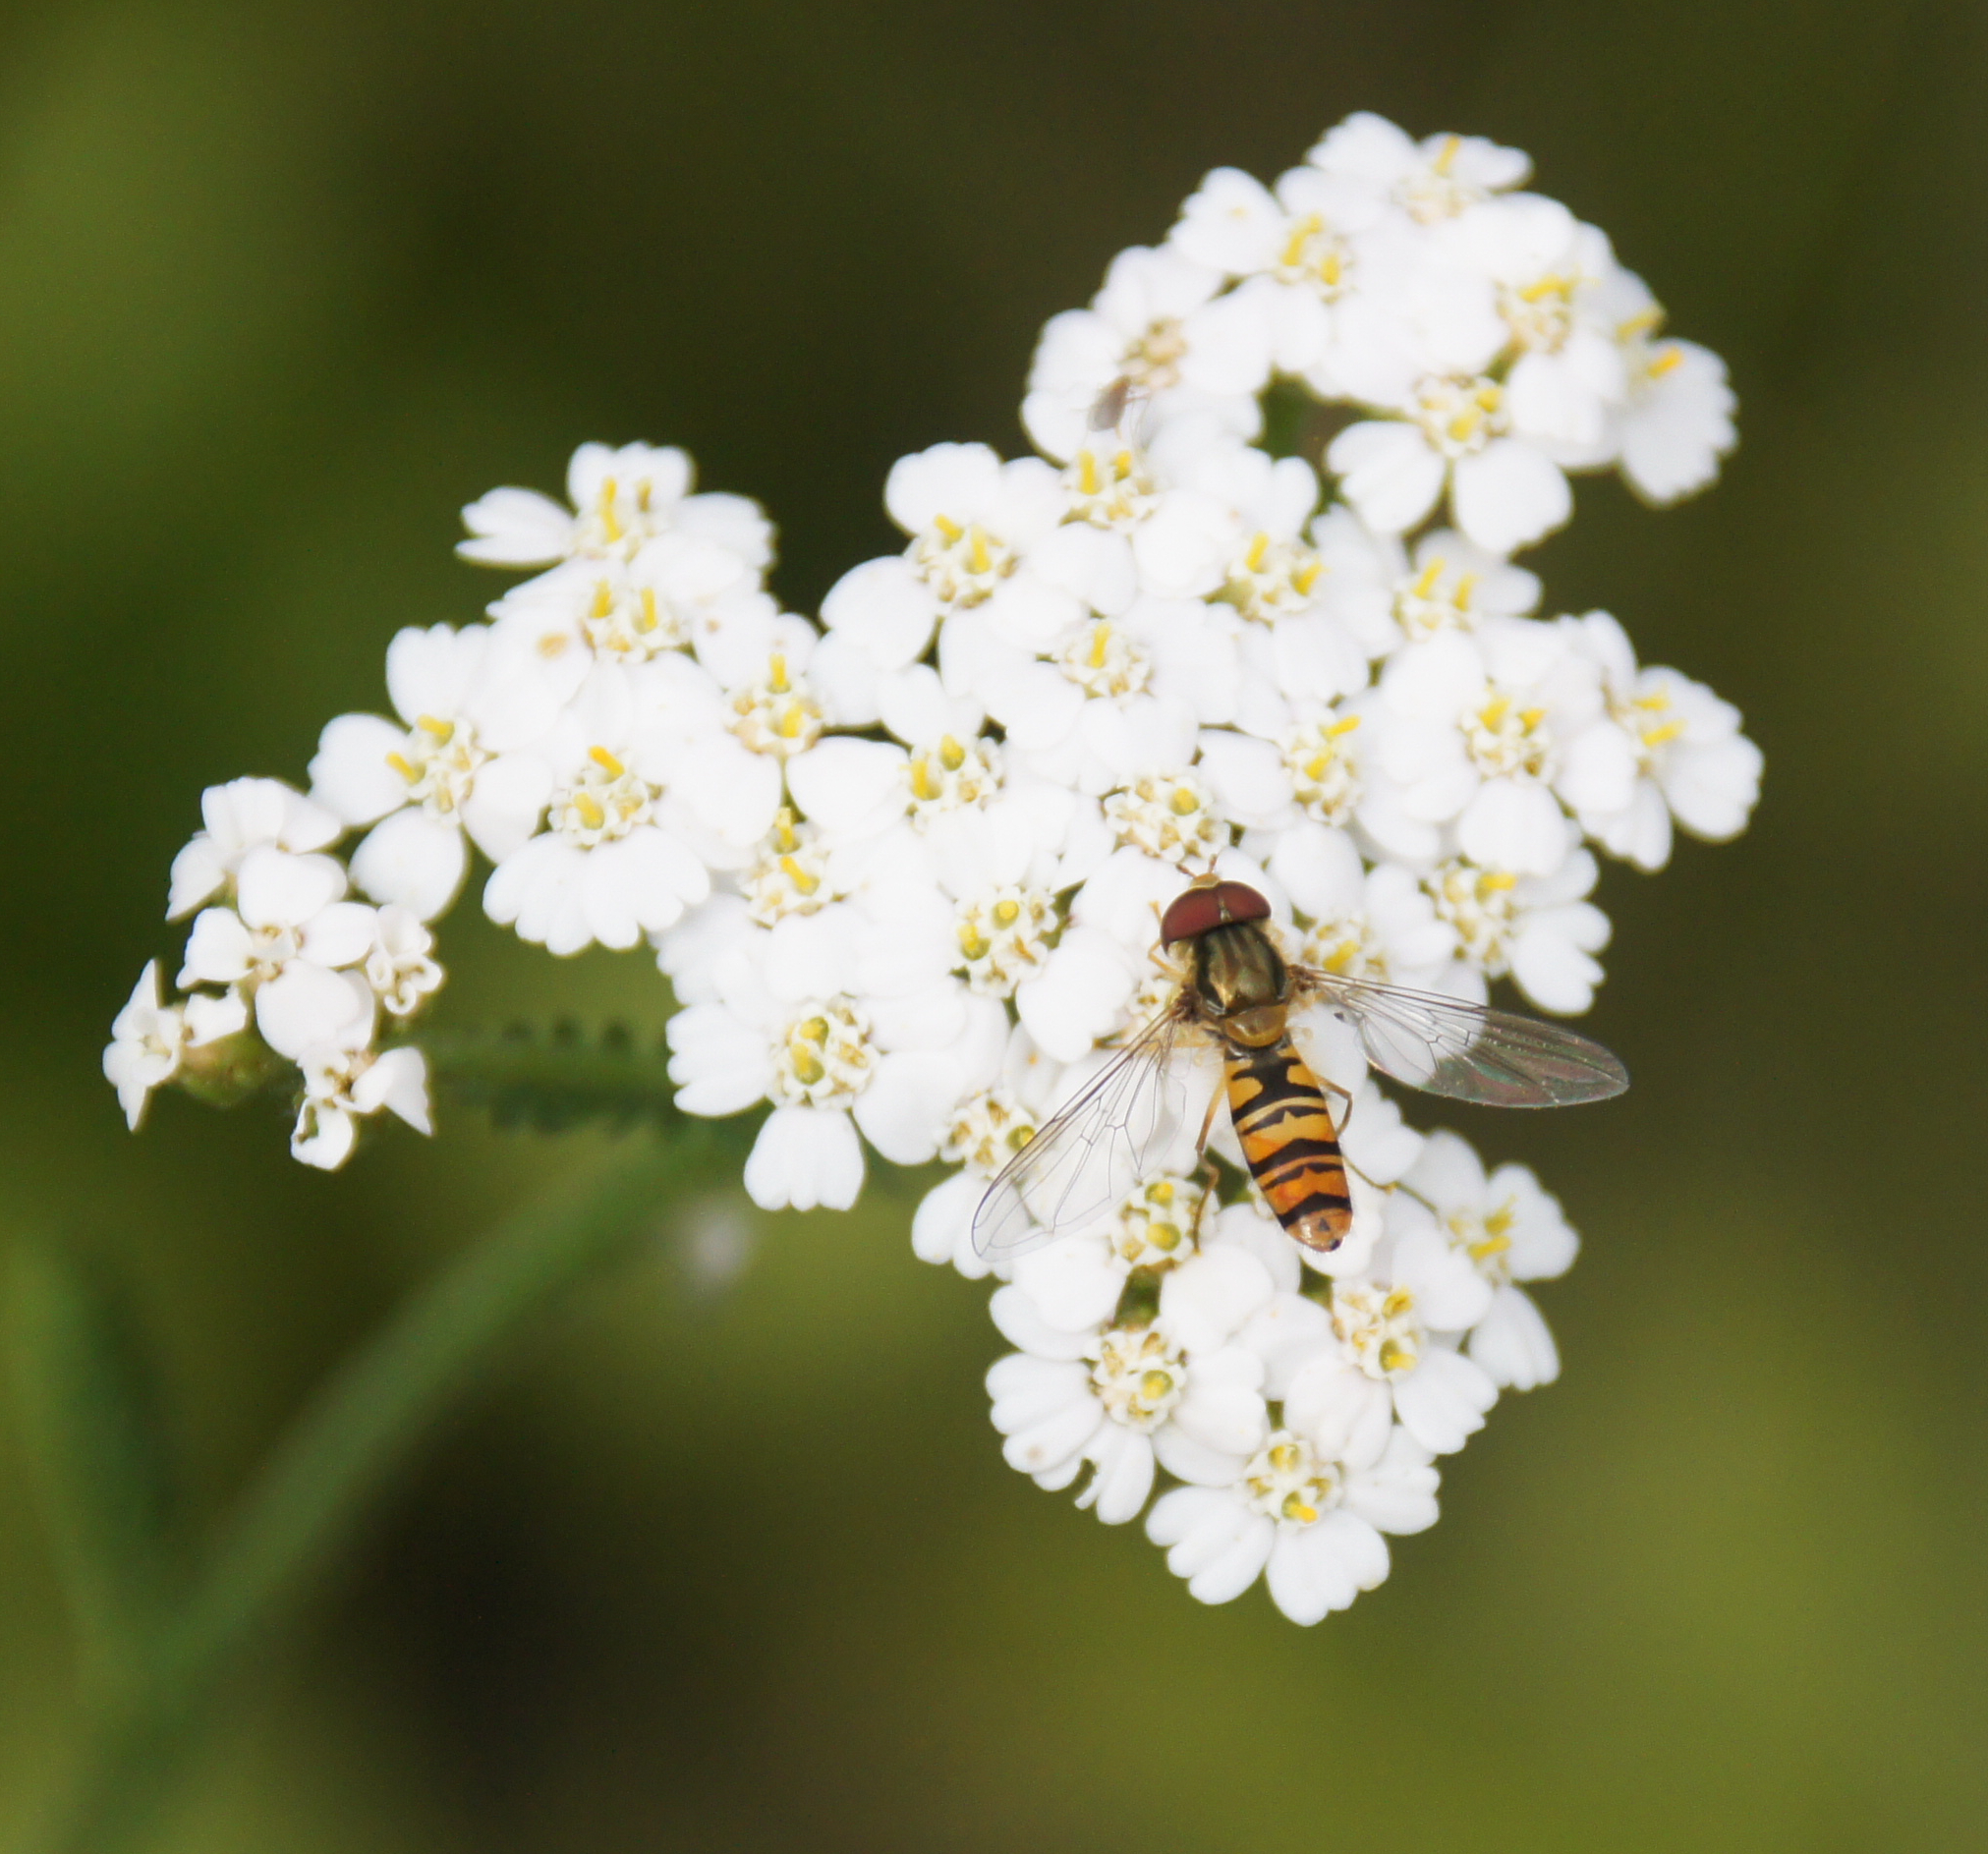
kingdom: Animalia
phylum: Arthropoda
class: Insecta
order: Diptera
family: Syrphidae
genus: Episyrphus
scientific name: Episyrphus balteatus
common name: Marmalade hoverfly
